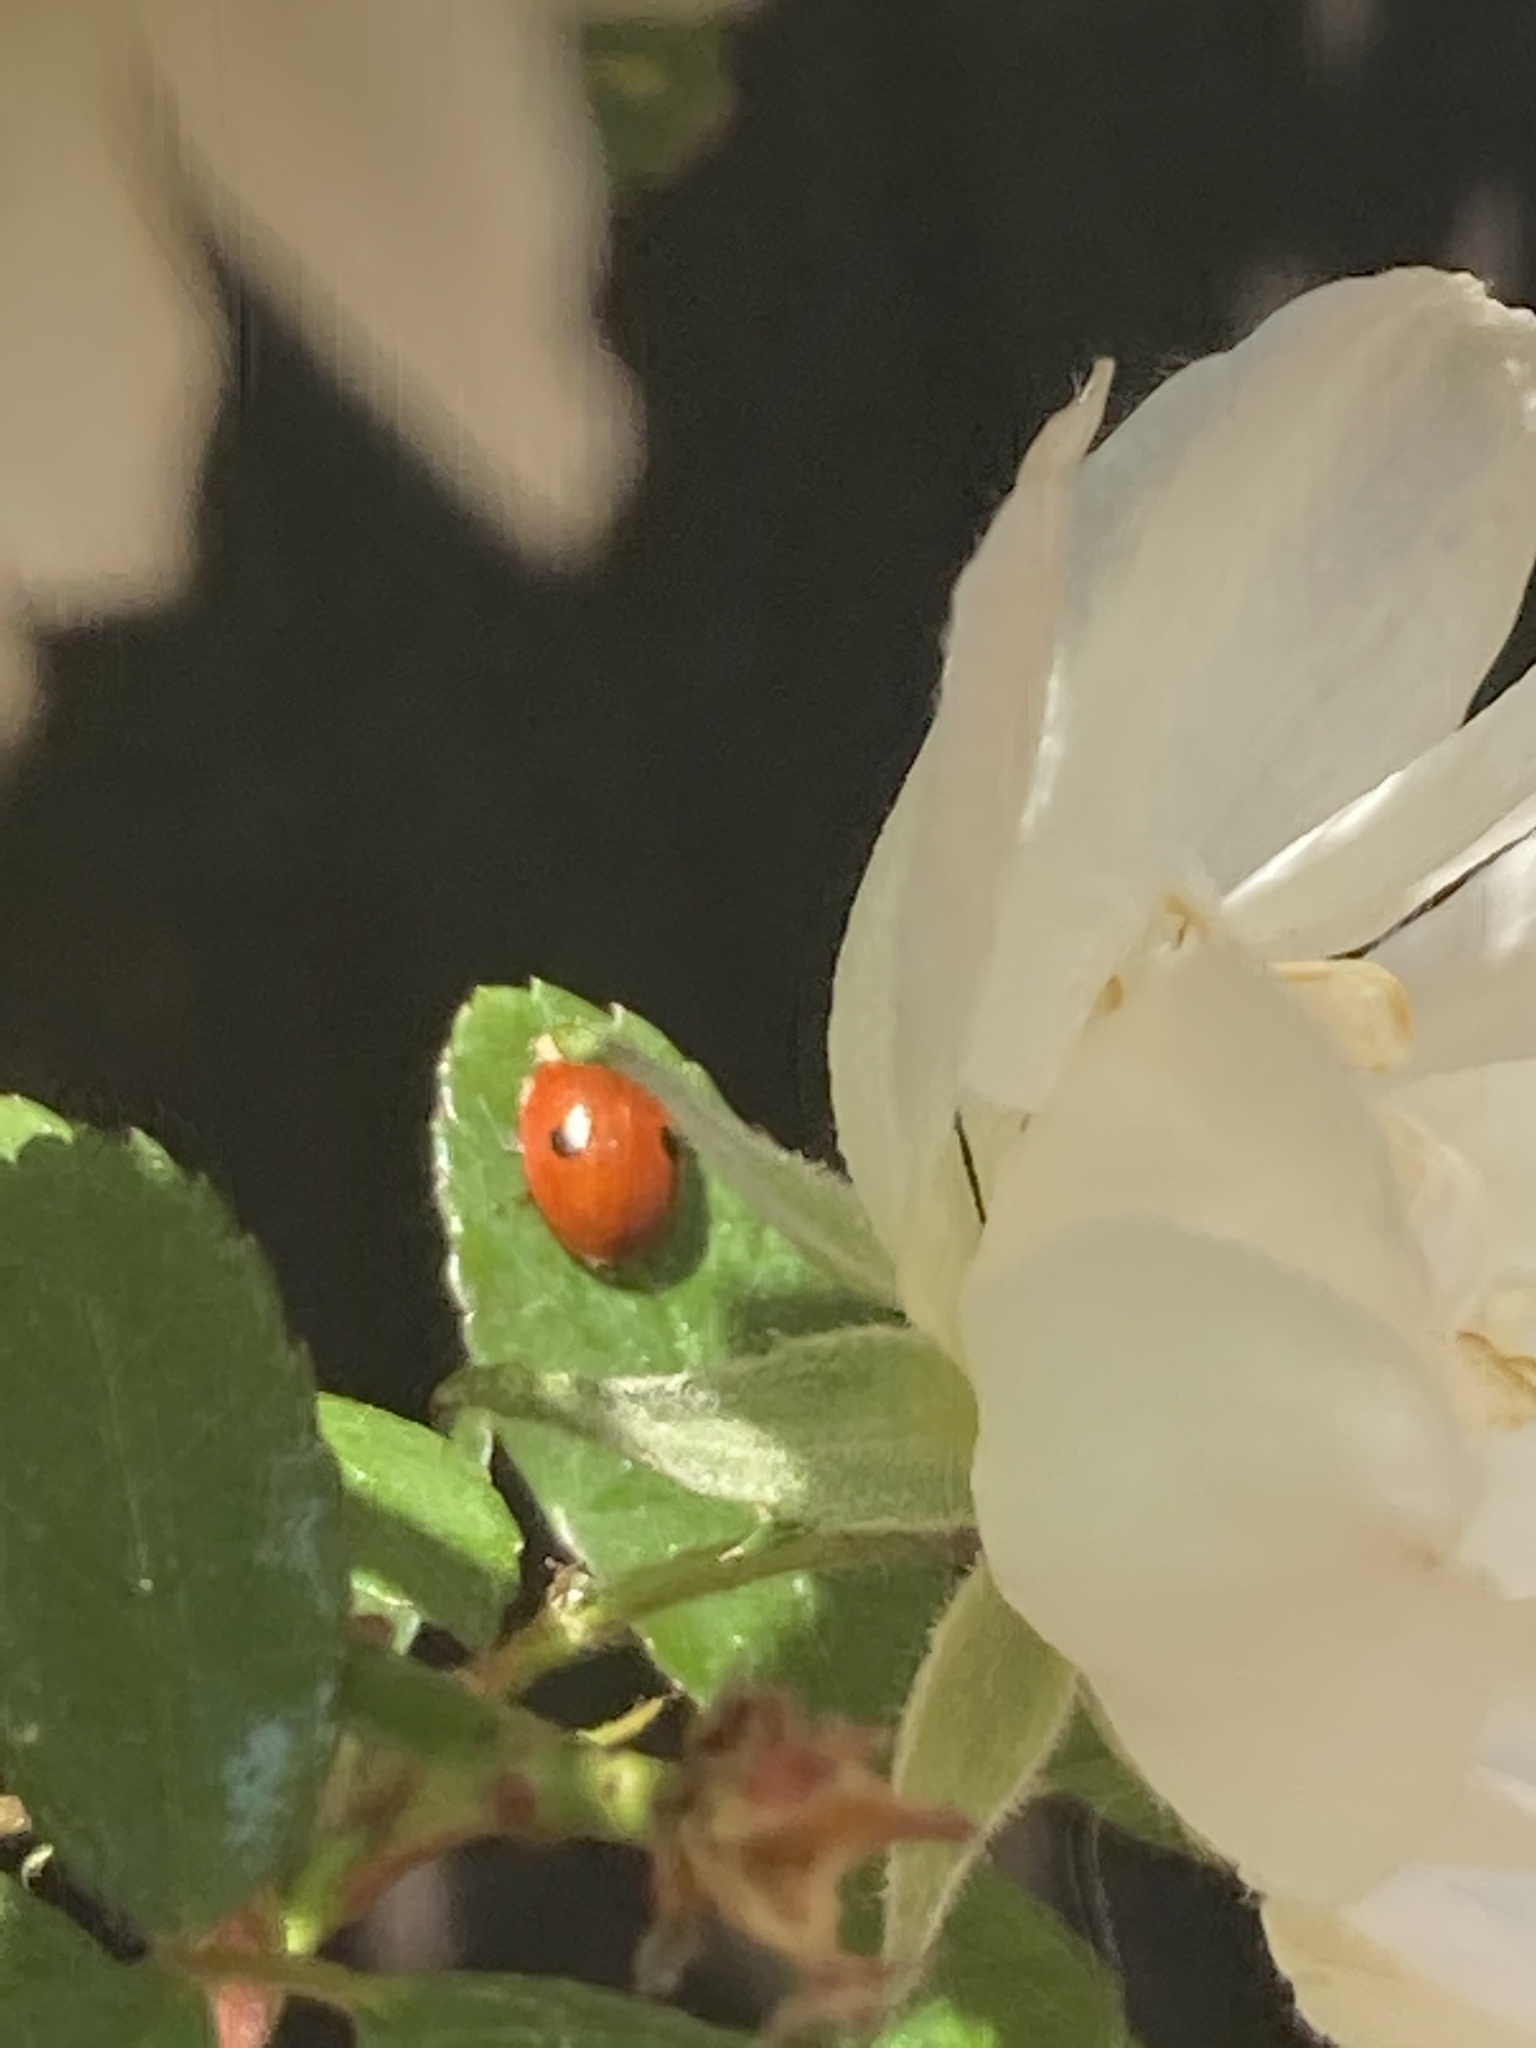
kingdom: Animalia
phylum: Arthropoda
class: Insecta
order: Coleoptera
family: Coccinellidae
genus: Adalia
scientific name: Adalia bipunctata
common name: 2-spot ladybird
